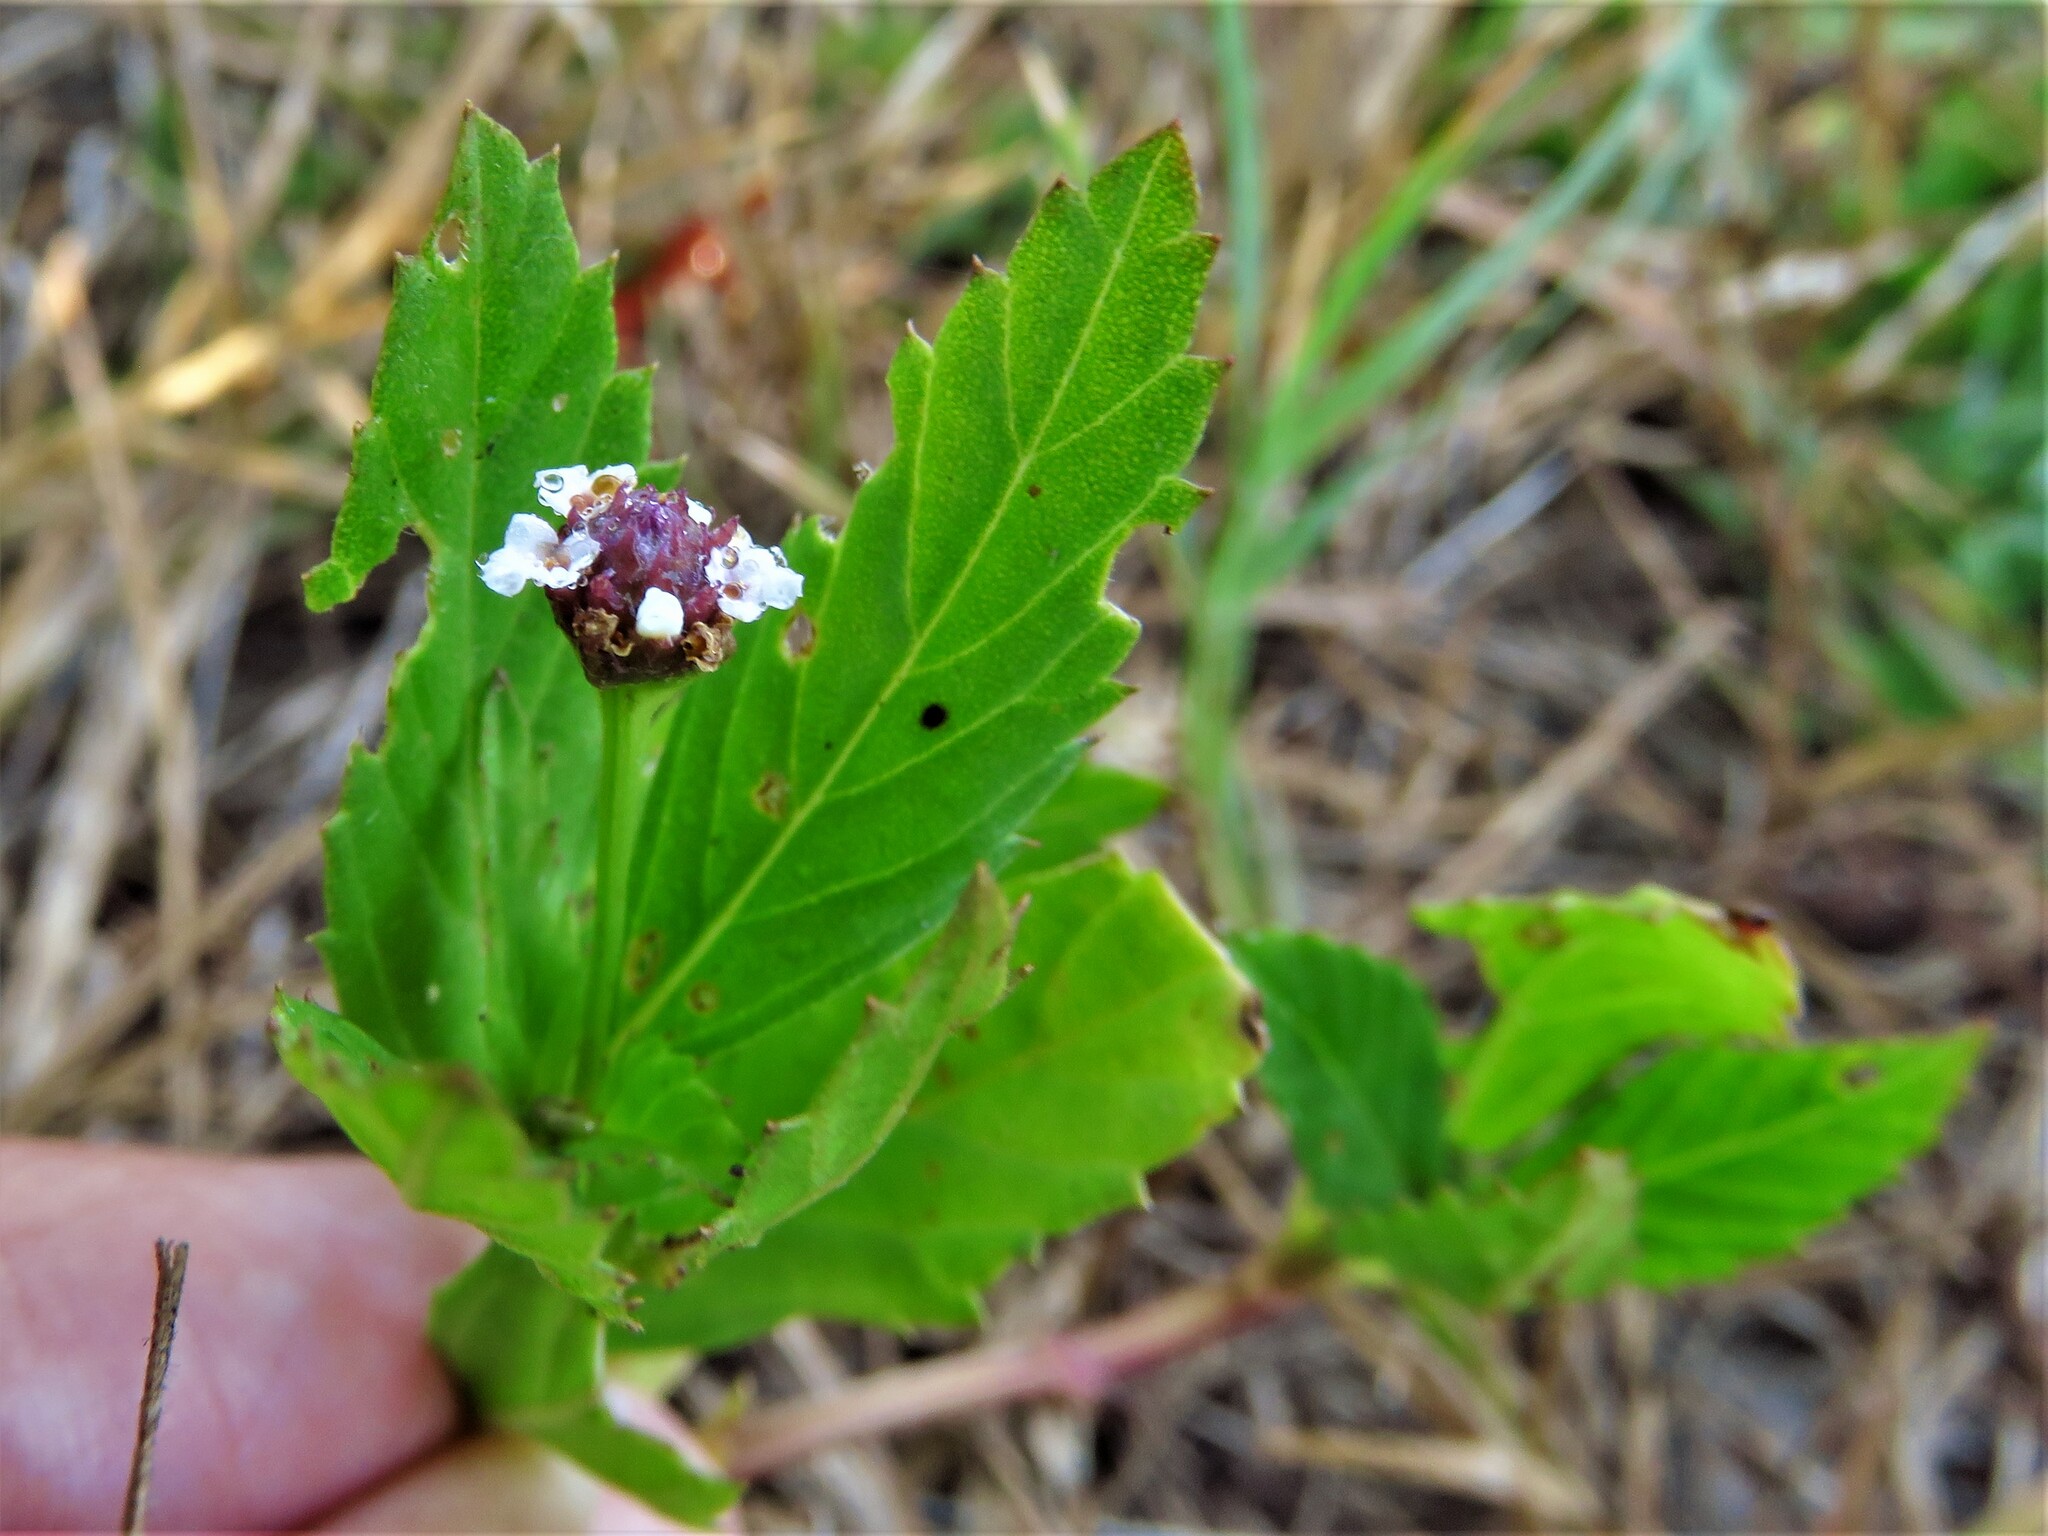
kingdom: Plantae
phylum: Tracheophyta
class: Magnoliopsida
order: Lamiales
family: Verbenaceae
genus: Phyla
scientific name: Phyla lanceolata
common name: Northern fogfruit
